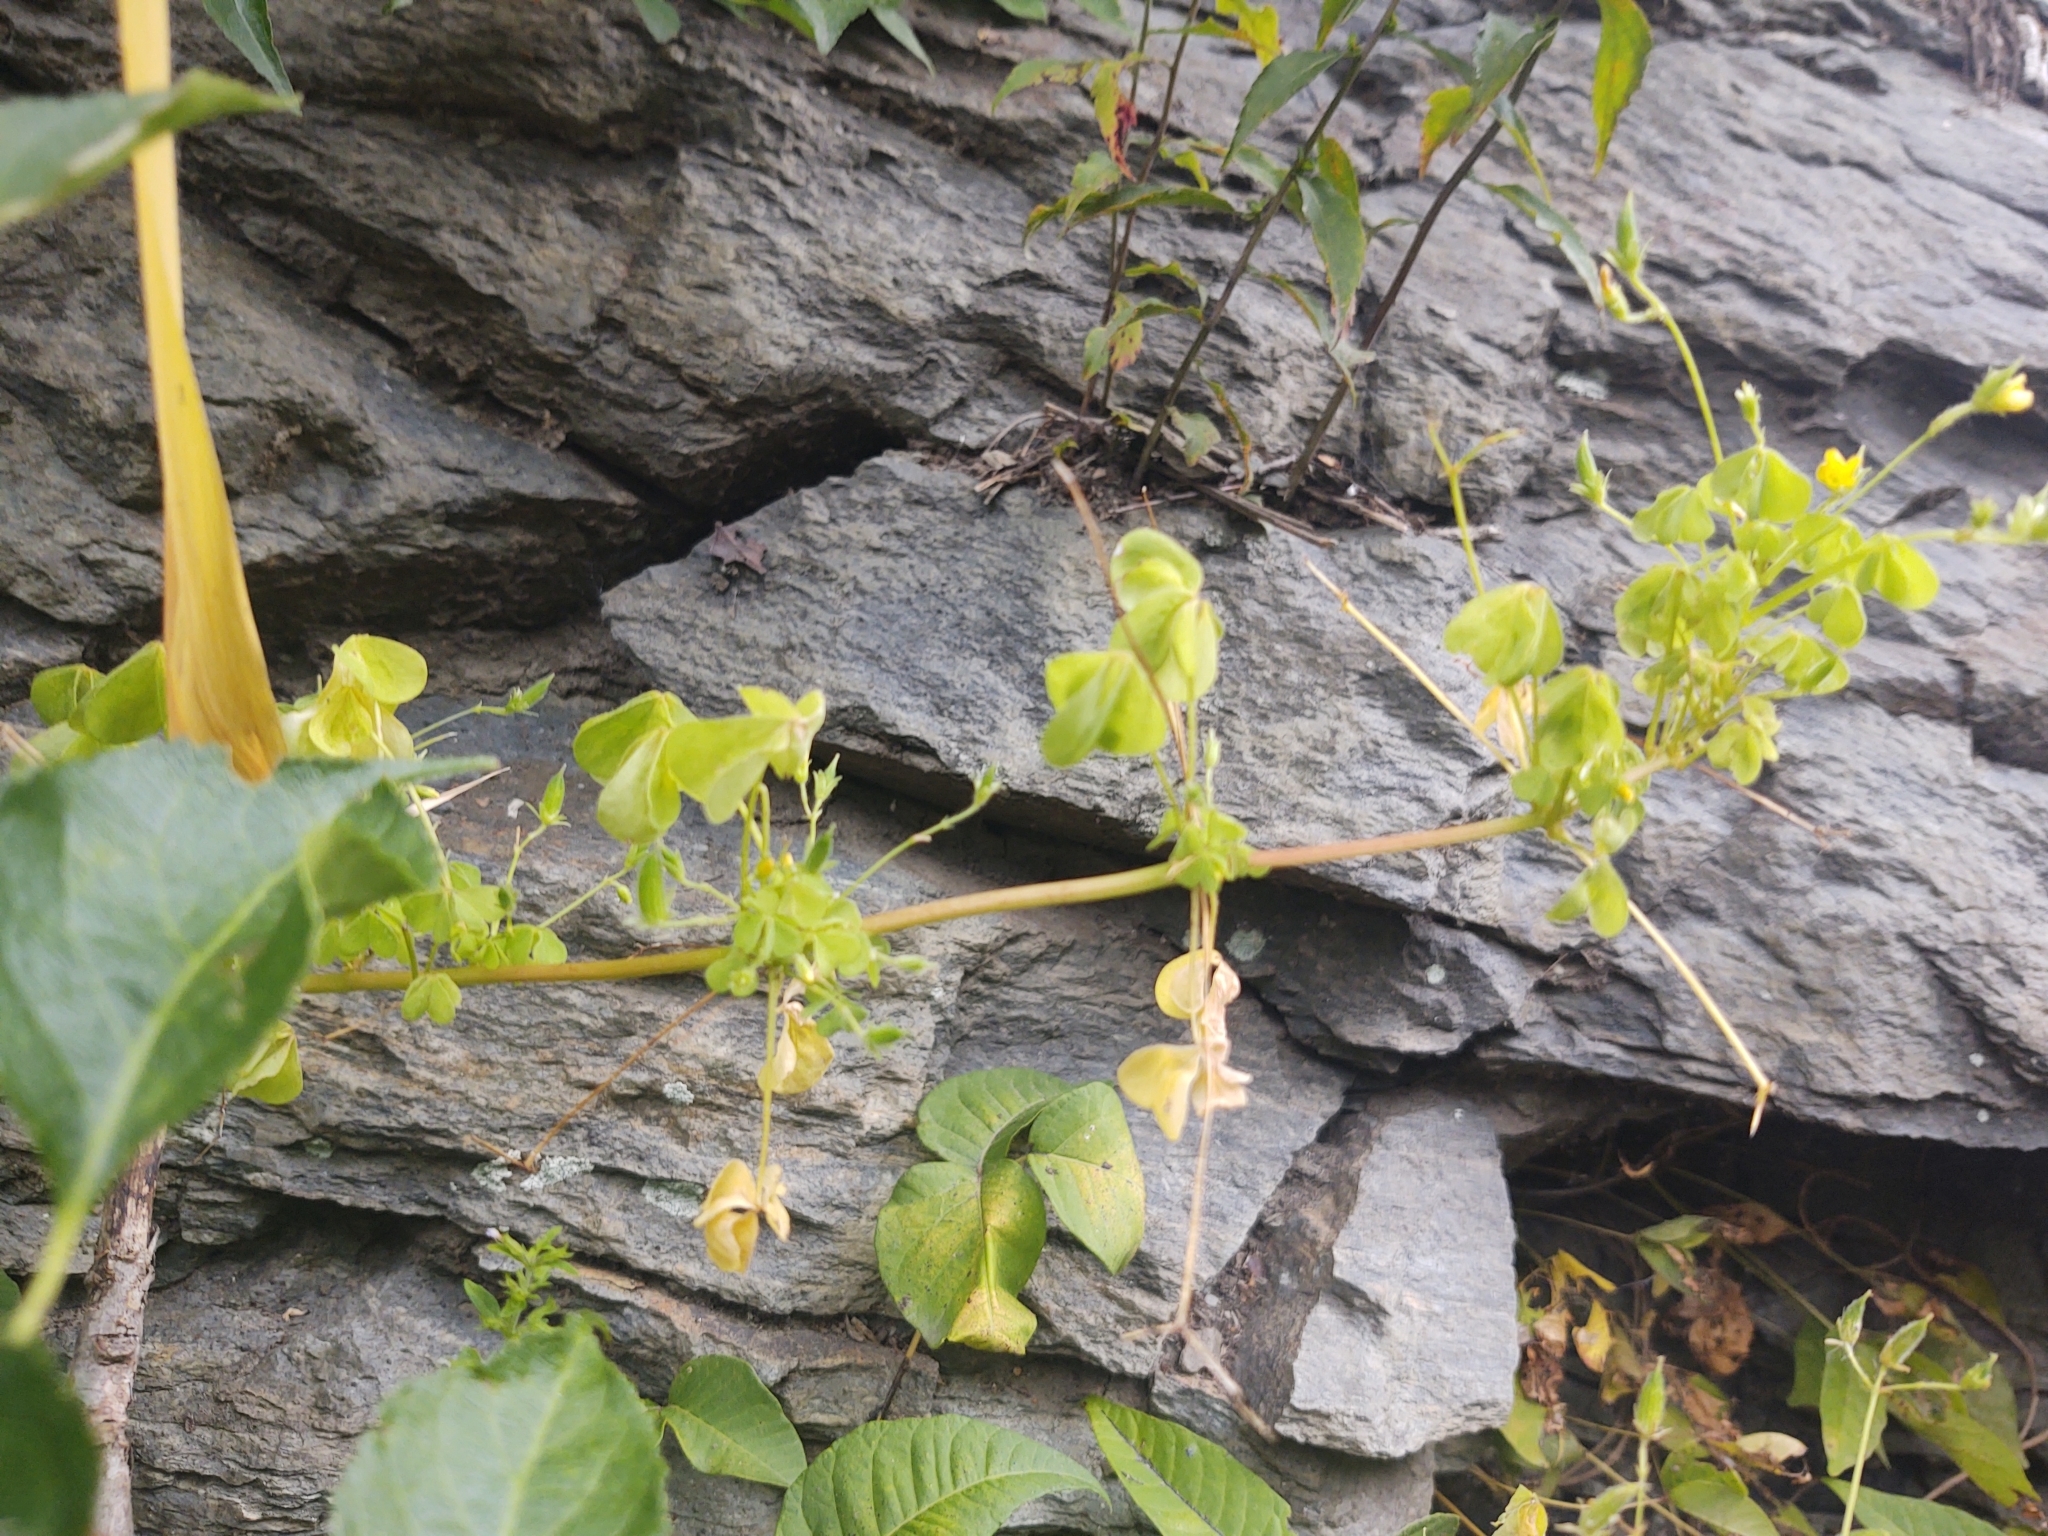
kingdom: Plantae
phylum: Tracheophyta
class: Magnoliopsida
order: Oxalidales
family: Oxalidaceae
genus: Oxalis
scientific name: Oxalis corniculata
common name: Procumbent yellow-sorrel
